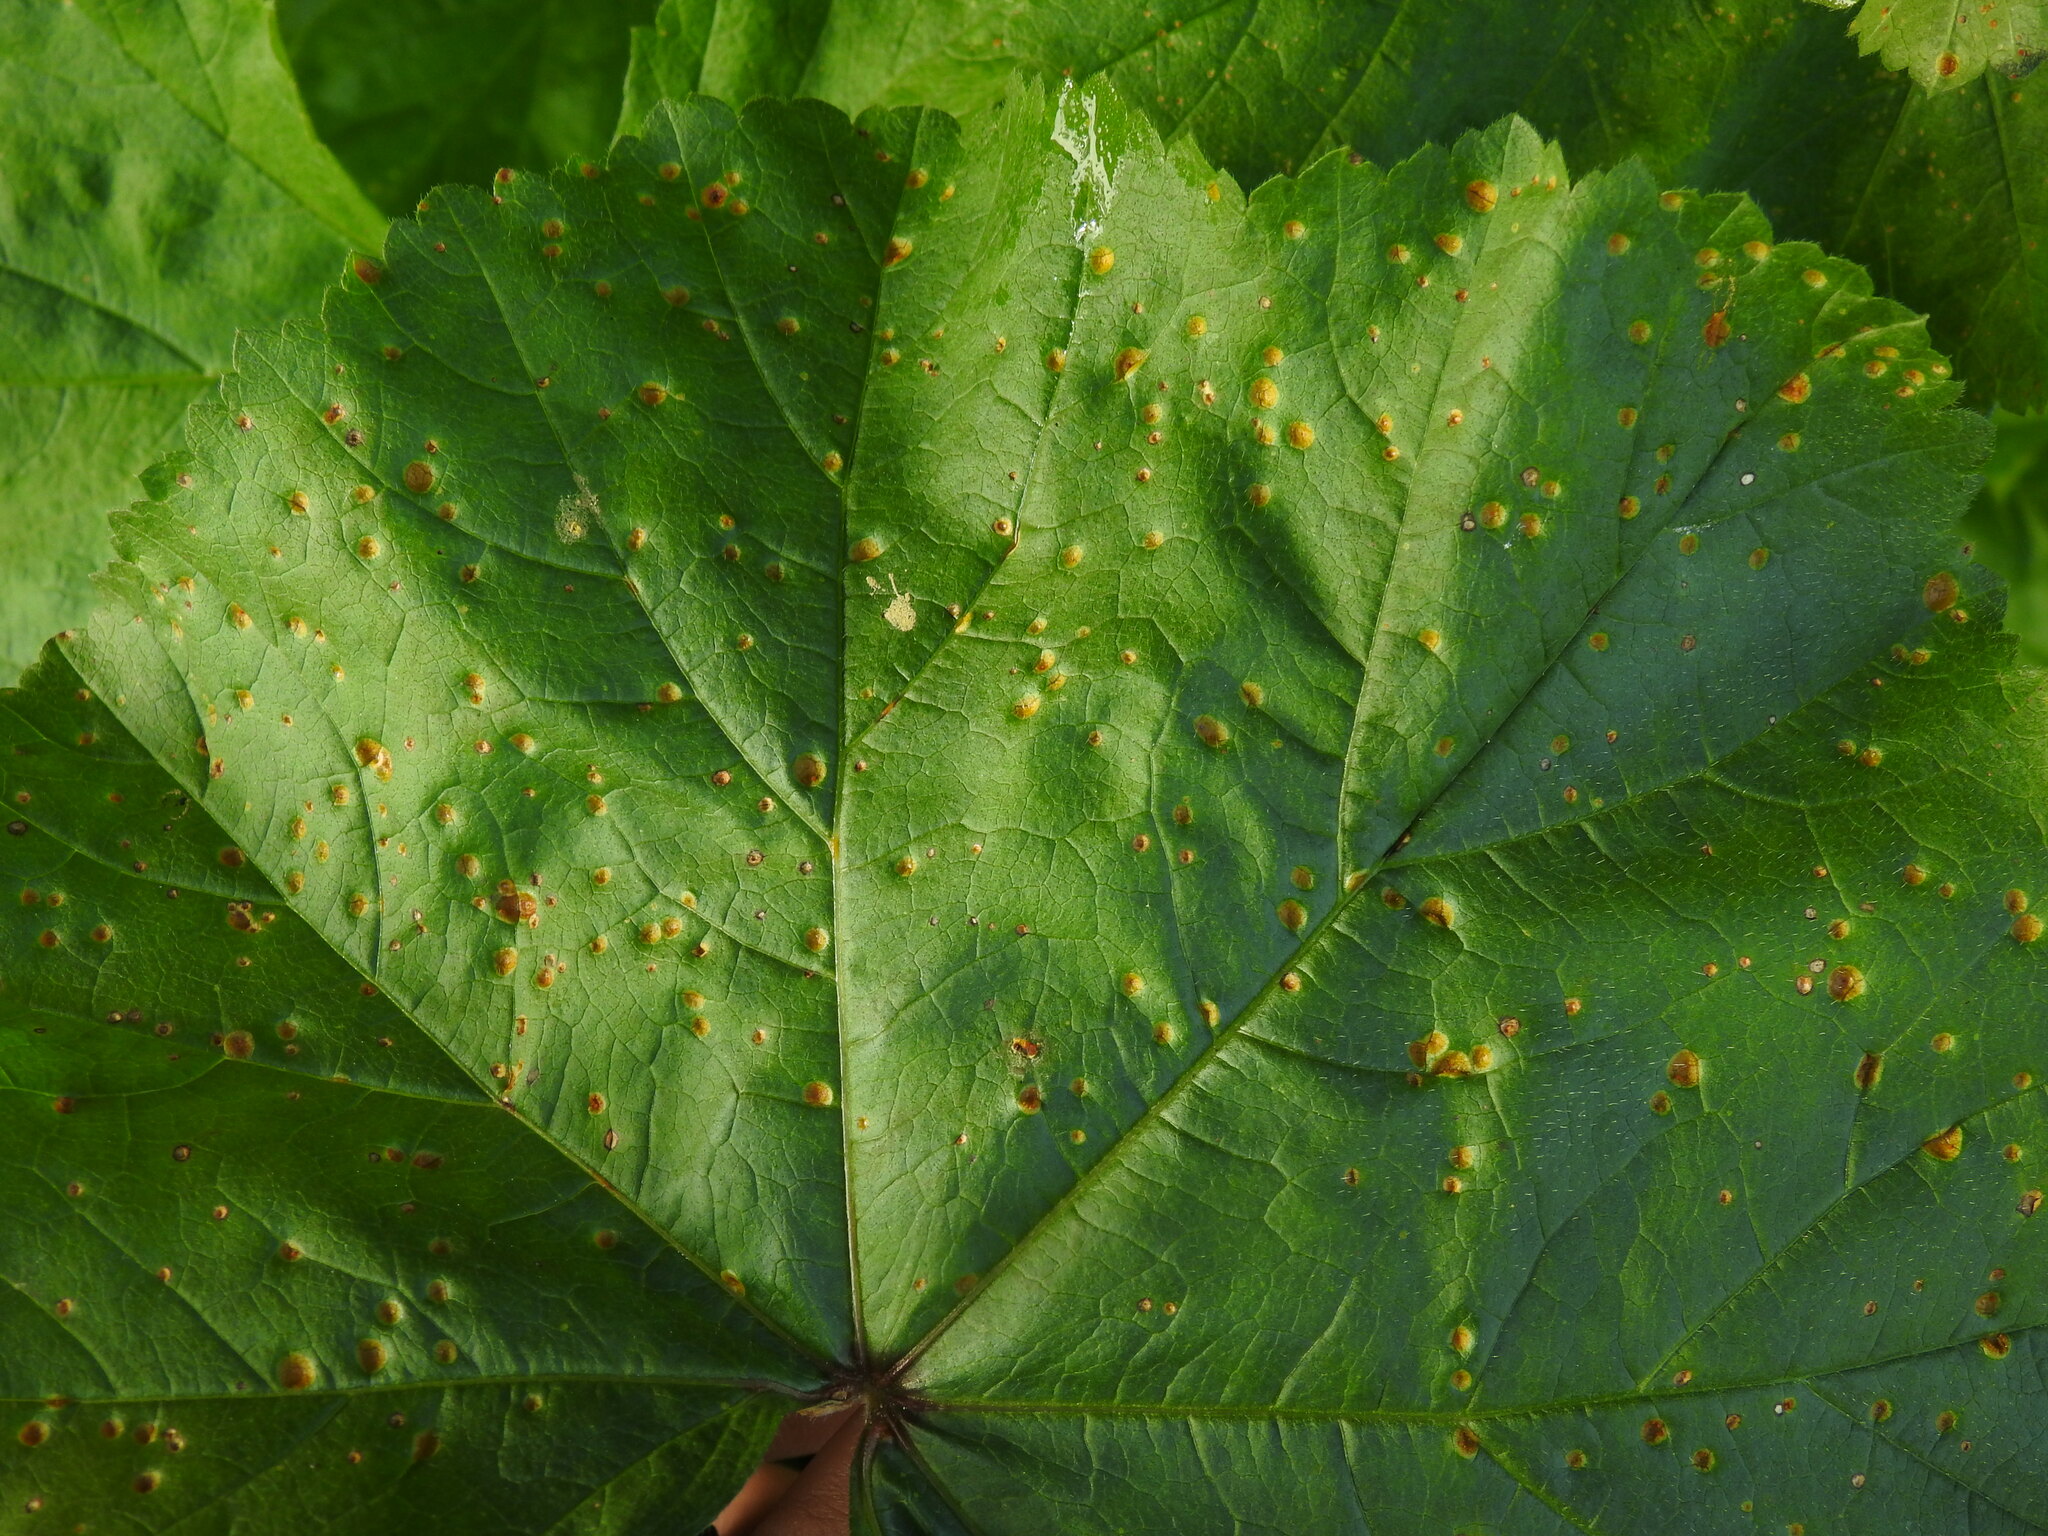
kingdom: Fungi
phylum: Basidiomycota
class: Pucciniomycetes
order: Pucciniales
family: Pucciniaceae
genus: Puccinia
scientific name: Puccinia malvacearum
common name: Hollyhock rust
